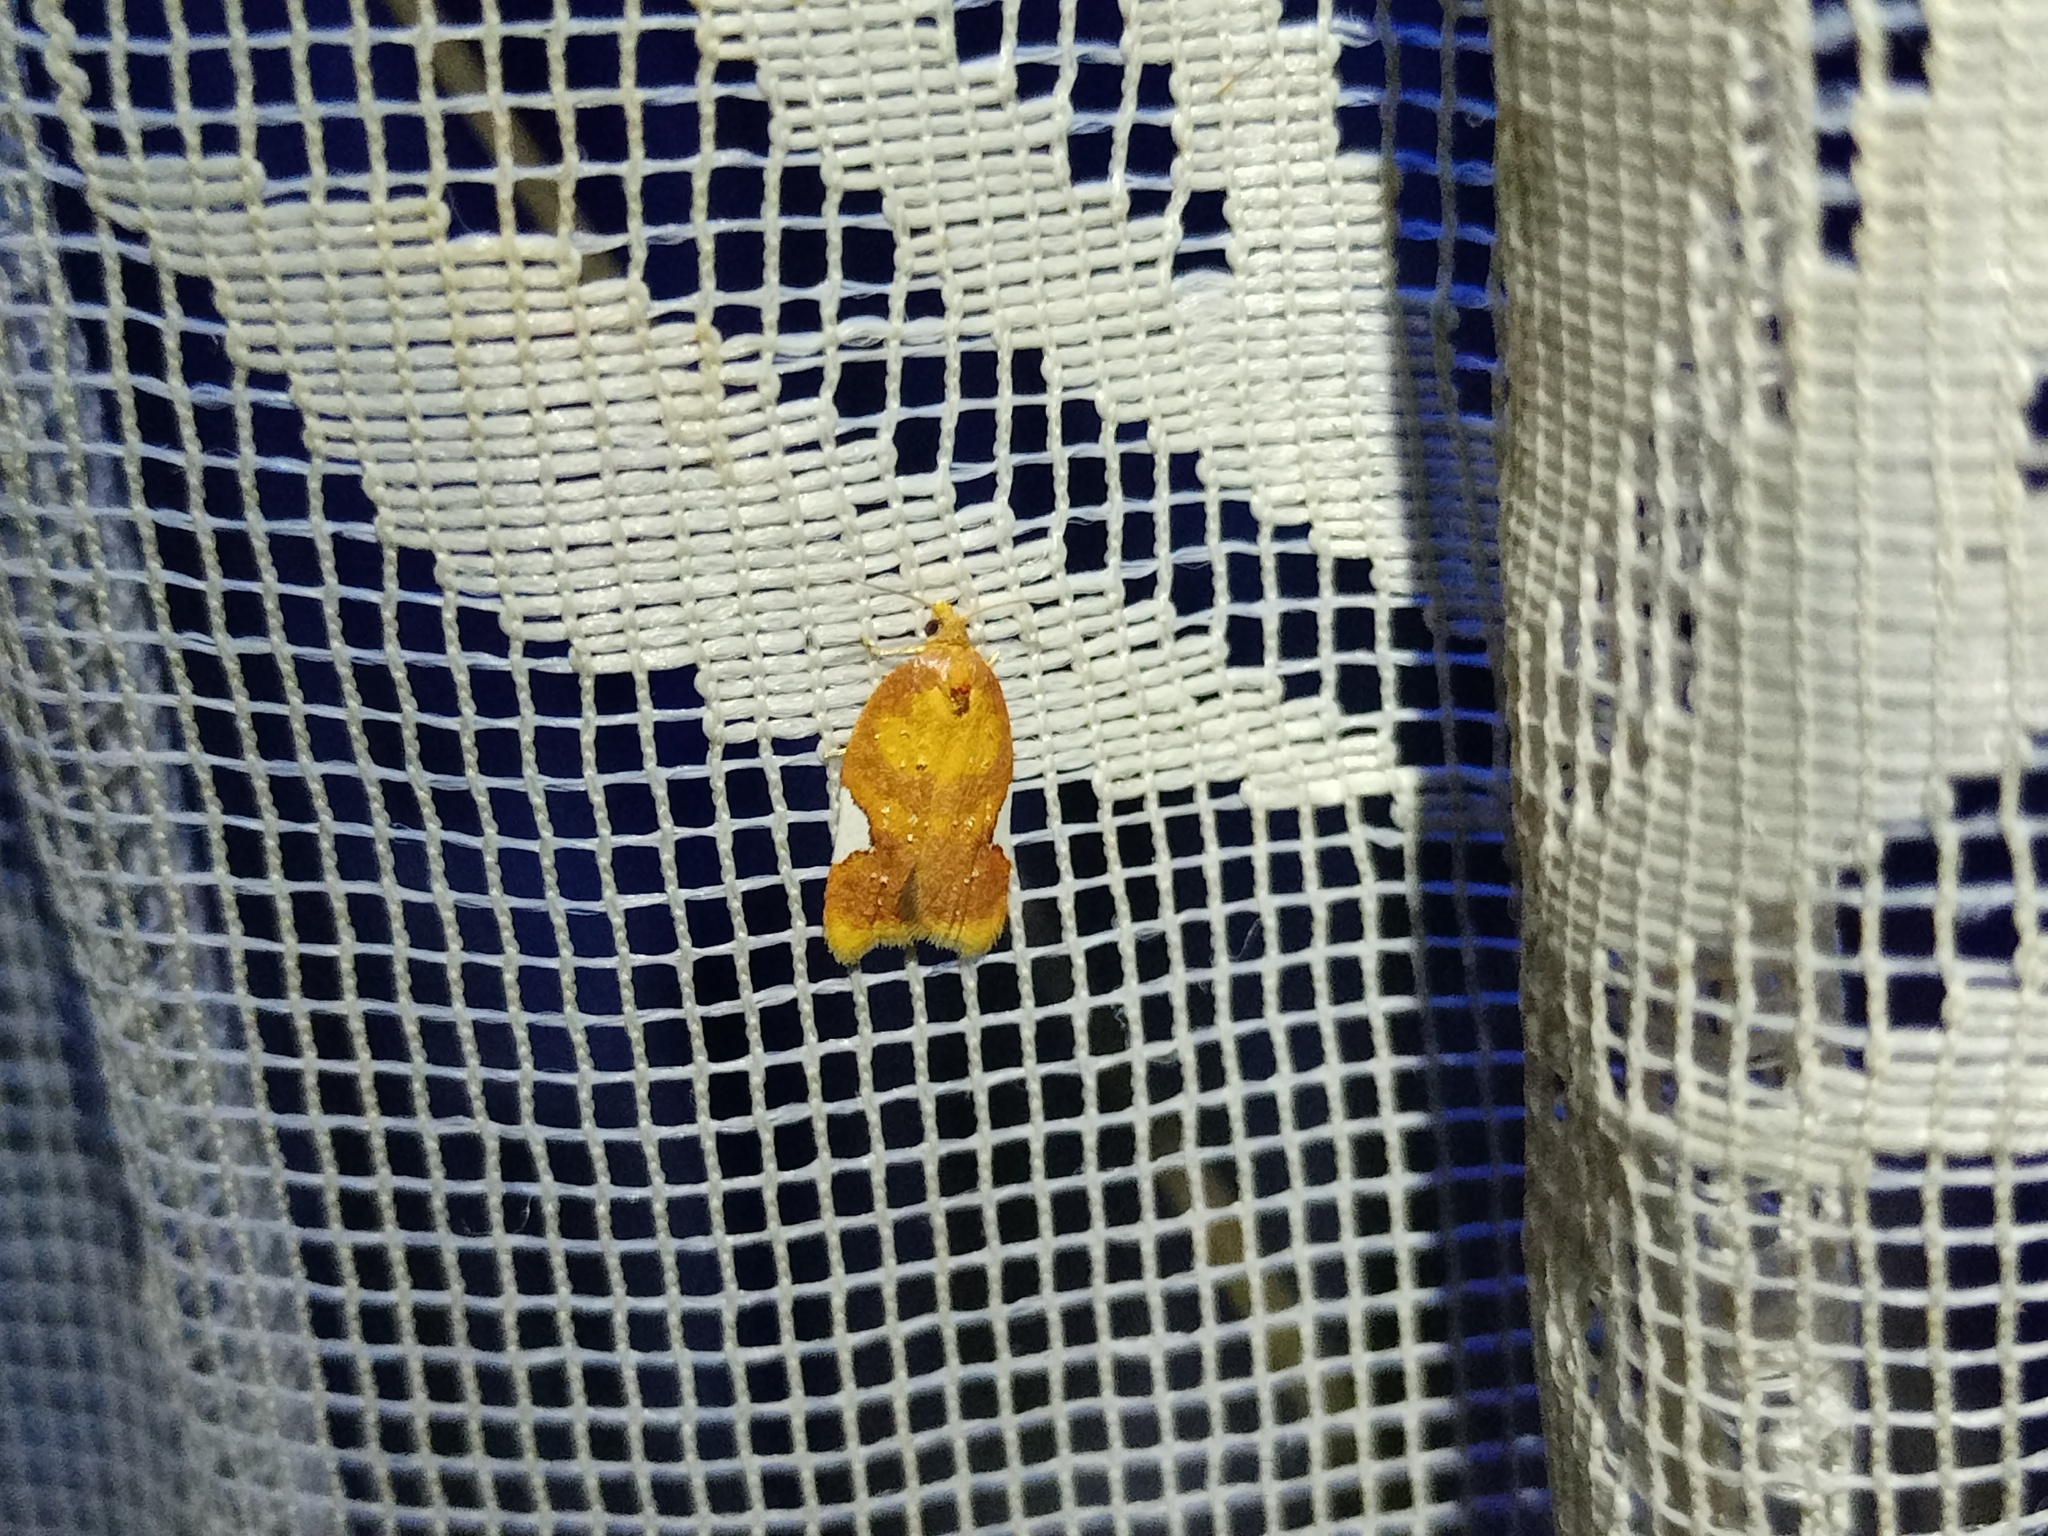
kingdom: Animalia
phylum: Arthropoda
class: Insecta
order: Lepidoptera
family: Tortricidae
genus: Acleris
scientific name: Acleris holmiana
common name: Golden leafroller moth
